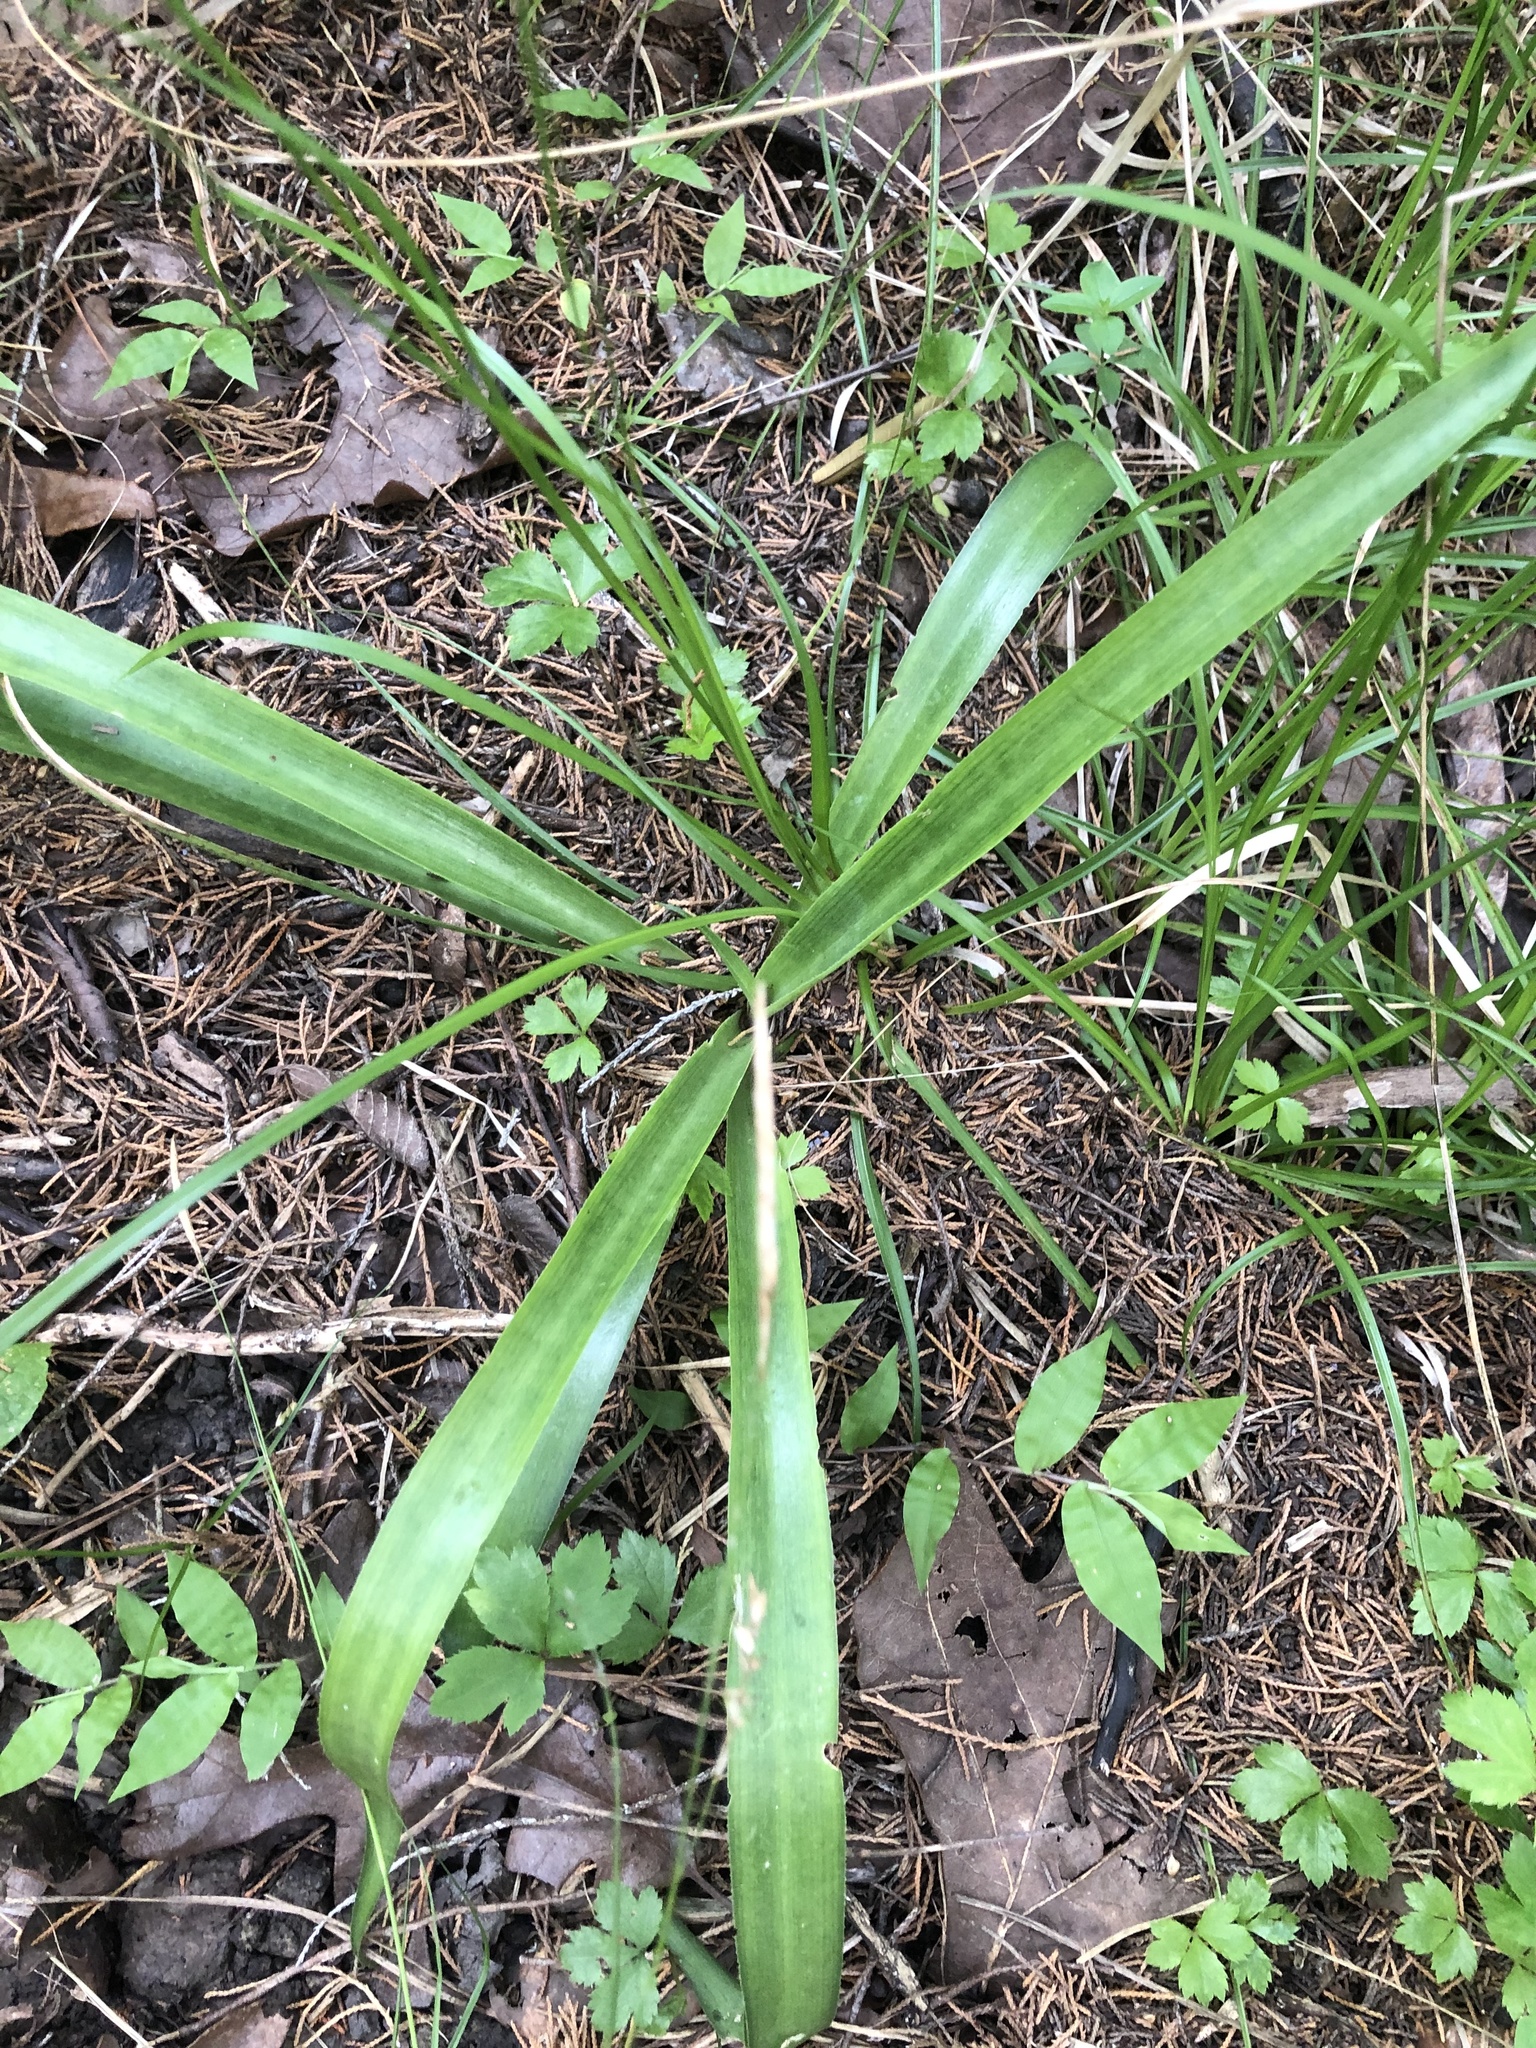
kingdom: Plantae
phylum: Tracheophyta
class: Liliopsida
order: Asparagales
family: Asparagaceae
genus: Agave
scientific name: Agave virginica
